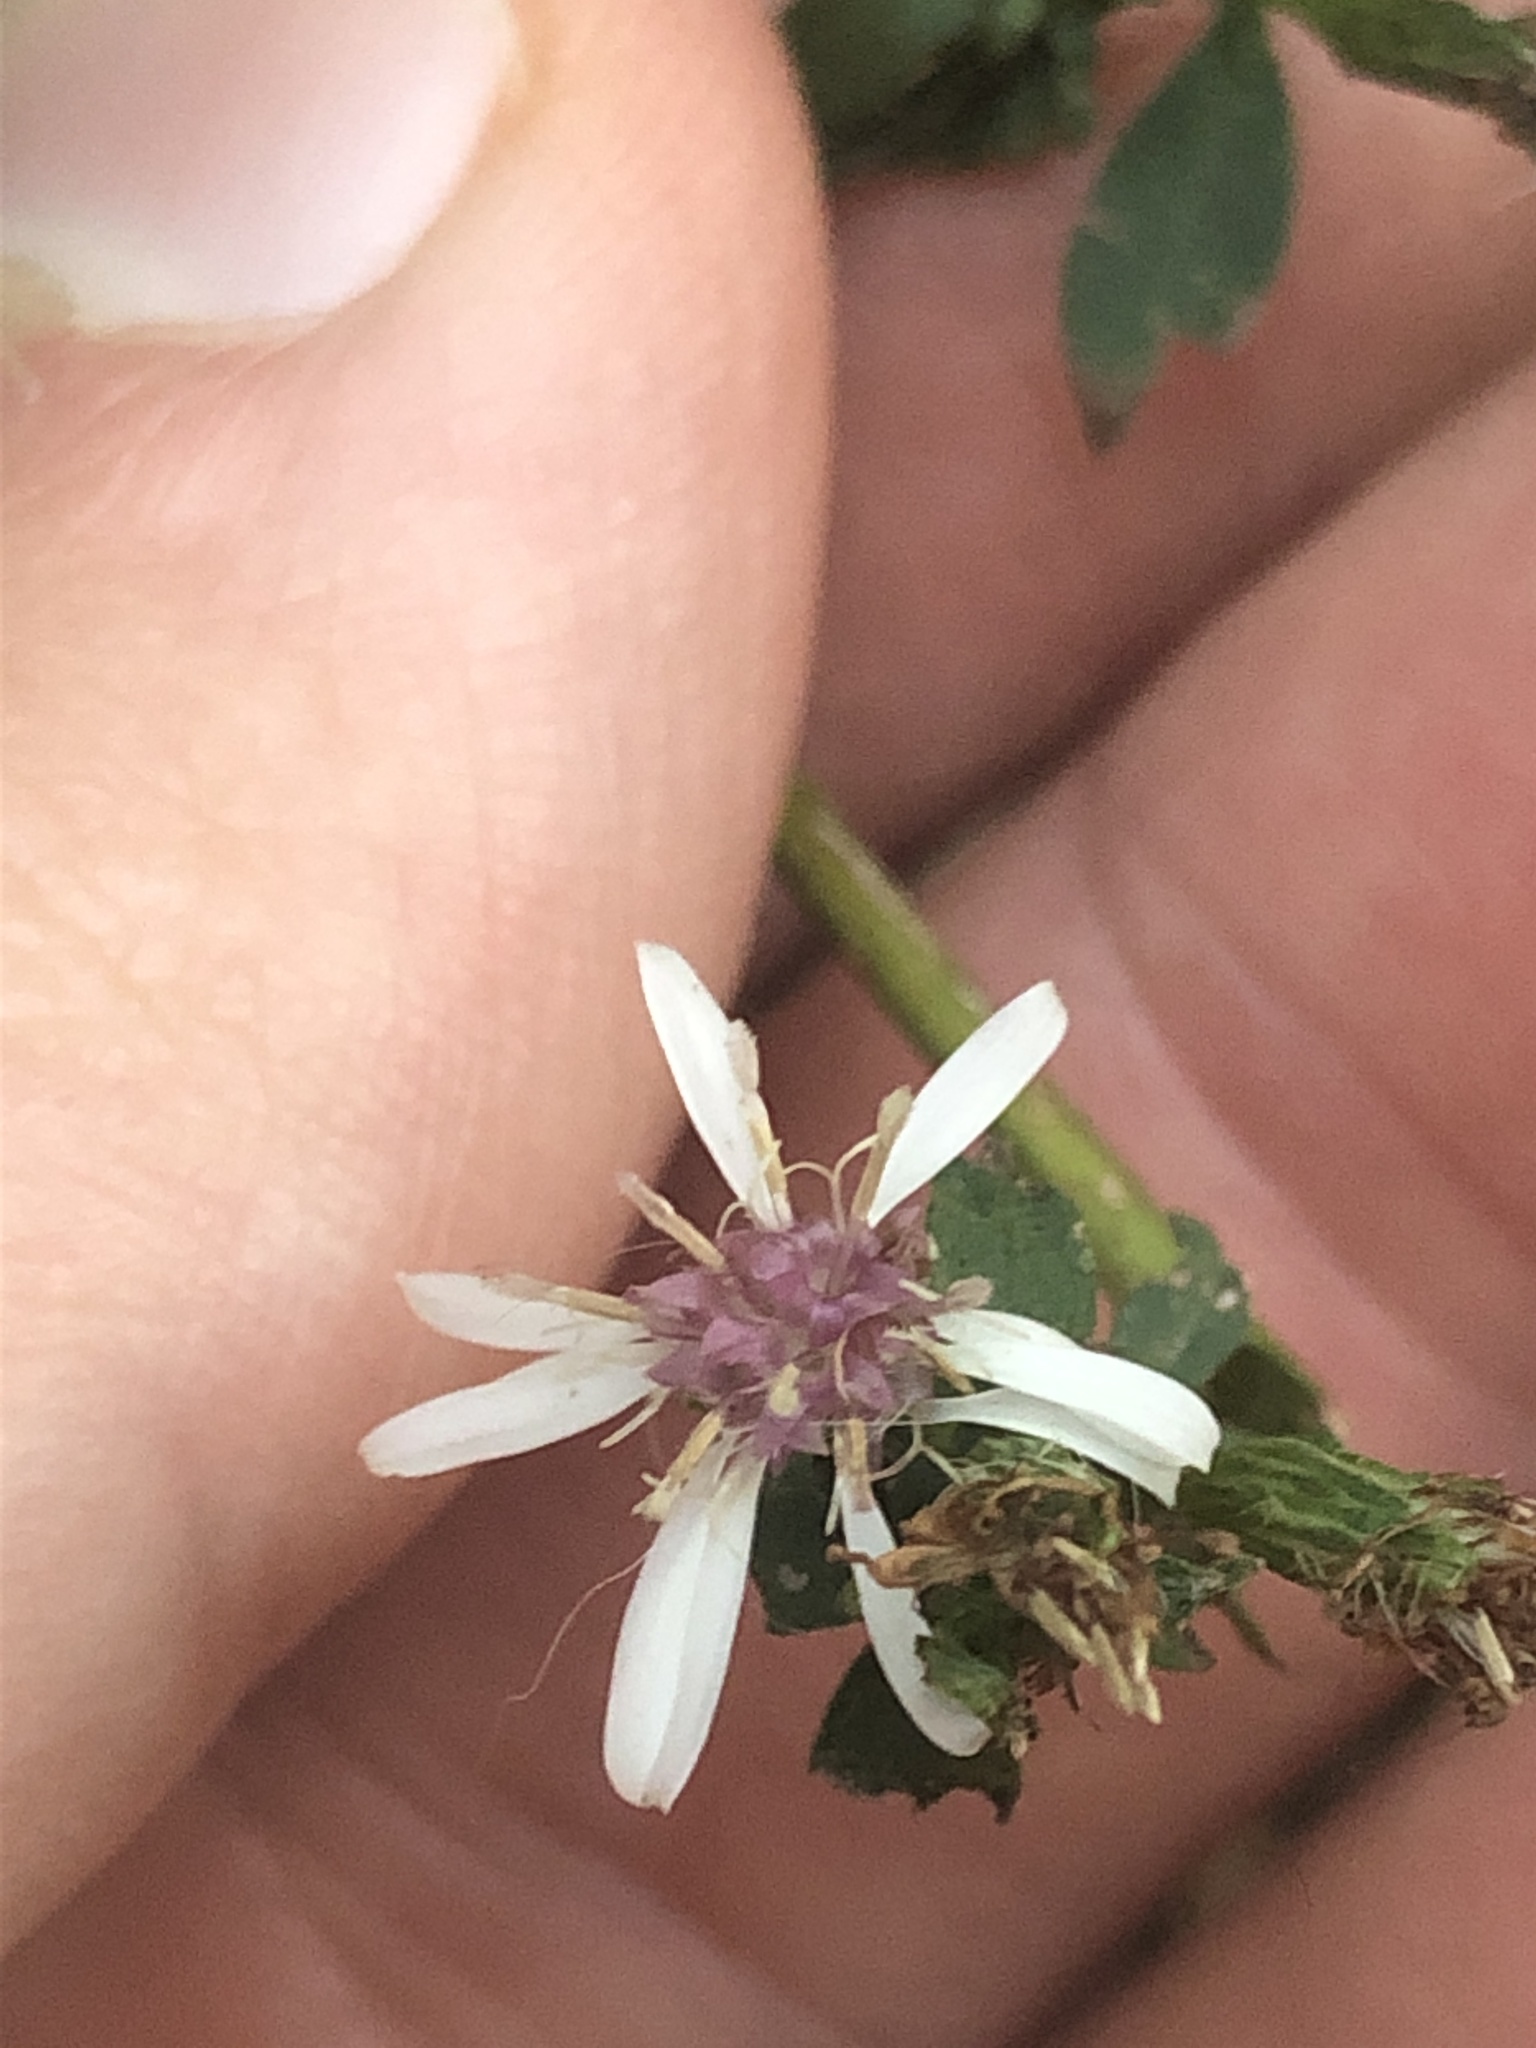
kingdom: Plantae
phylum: Tracheophyta
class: Magnoliopsida
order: Asterales
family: Asteraceae
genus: Symphyotrichum
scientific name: Symphyotrichum lateriflorum
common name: Calico aster
